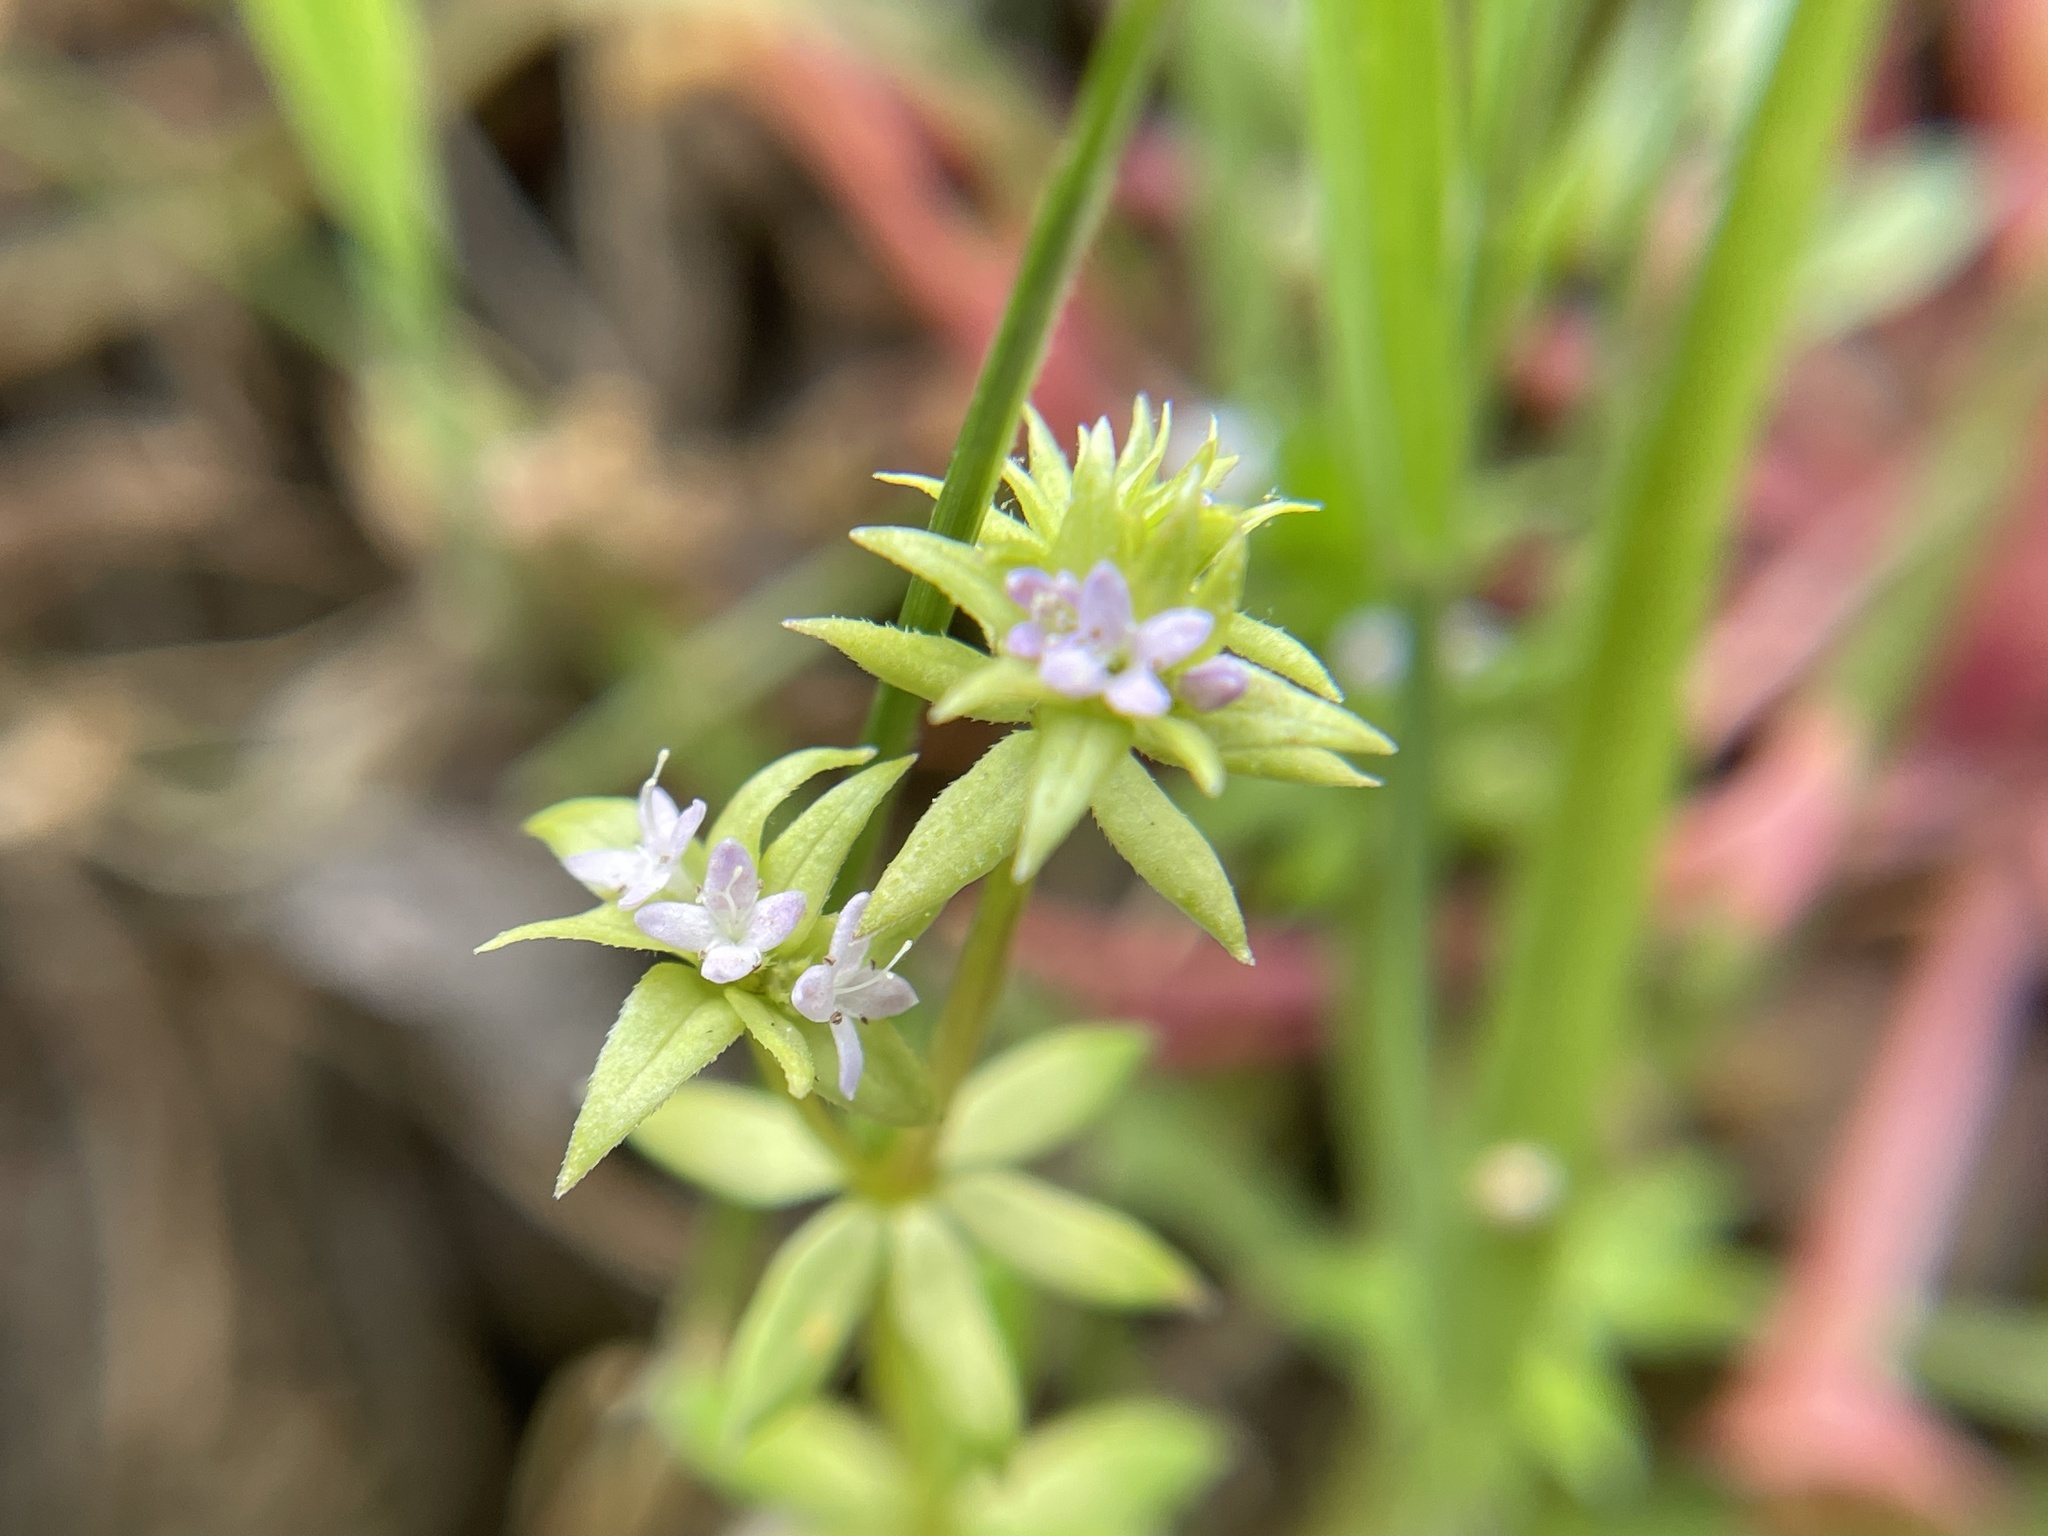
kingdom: Plantae
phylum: Tracheophyta
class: Magnoliopsida
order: Gentianales
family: Rubiaceae
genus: Sherardia
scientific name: Sherardia arvensis
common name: Field madder
